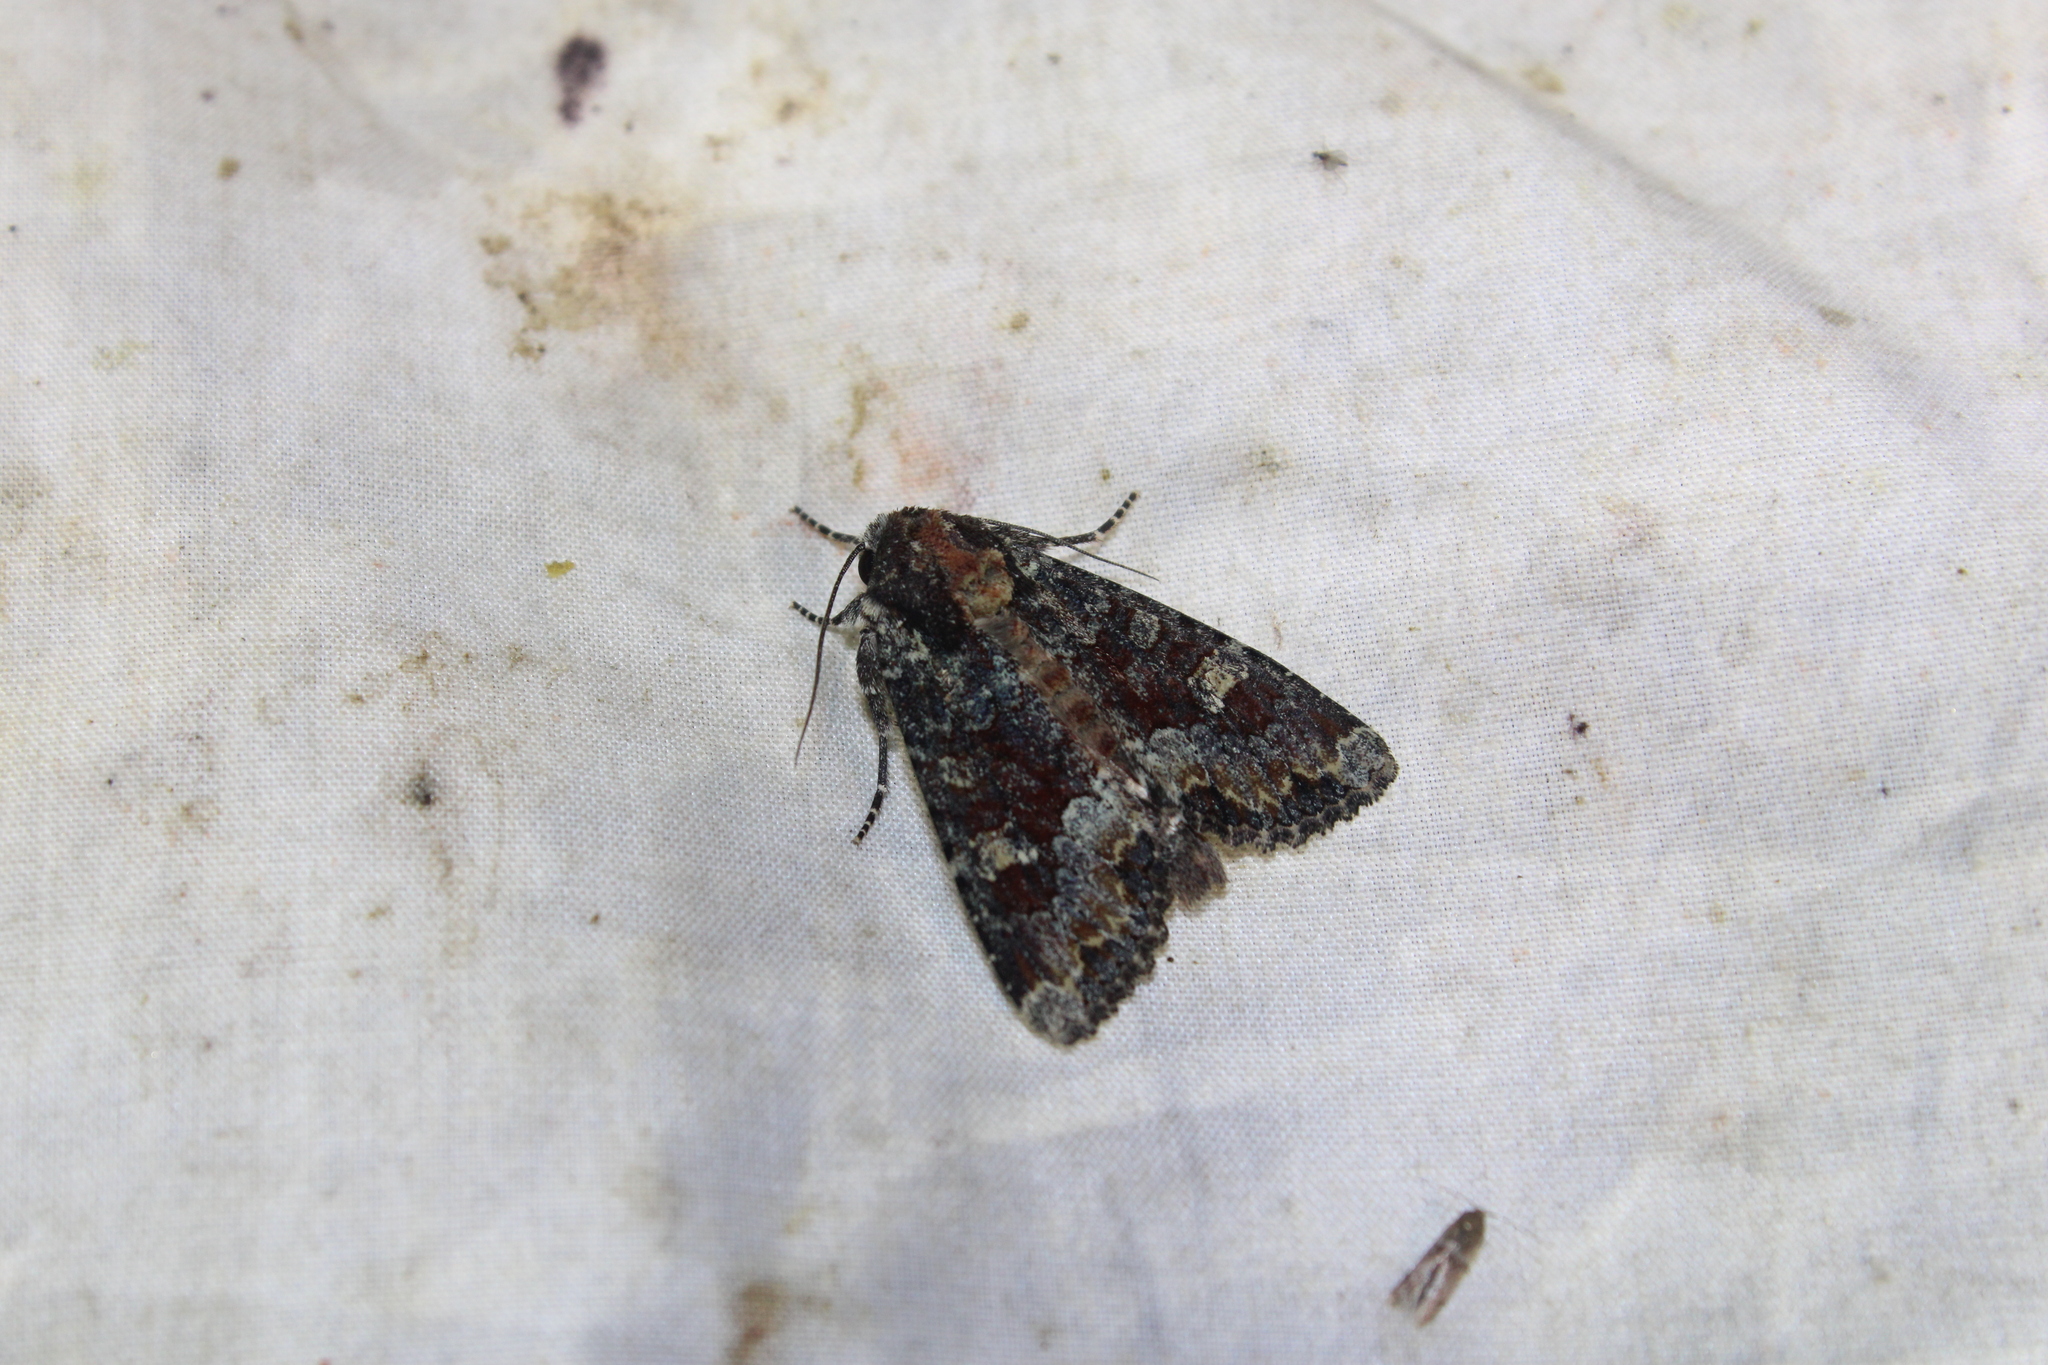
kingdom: Animalia
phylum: Arthropoda
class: Insecta
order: Lepidoptera
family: Noctuidae
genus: Apamea
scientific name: Apamea amputatrix
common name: Yellow-headed cutworm moth
